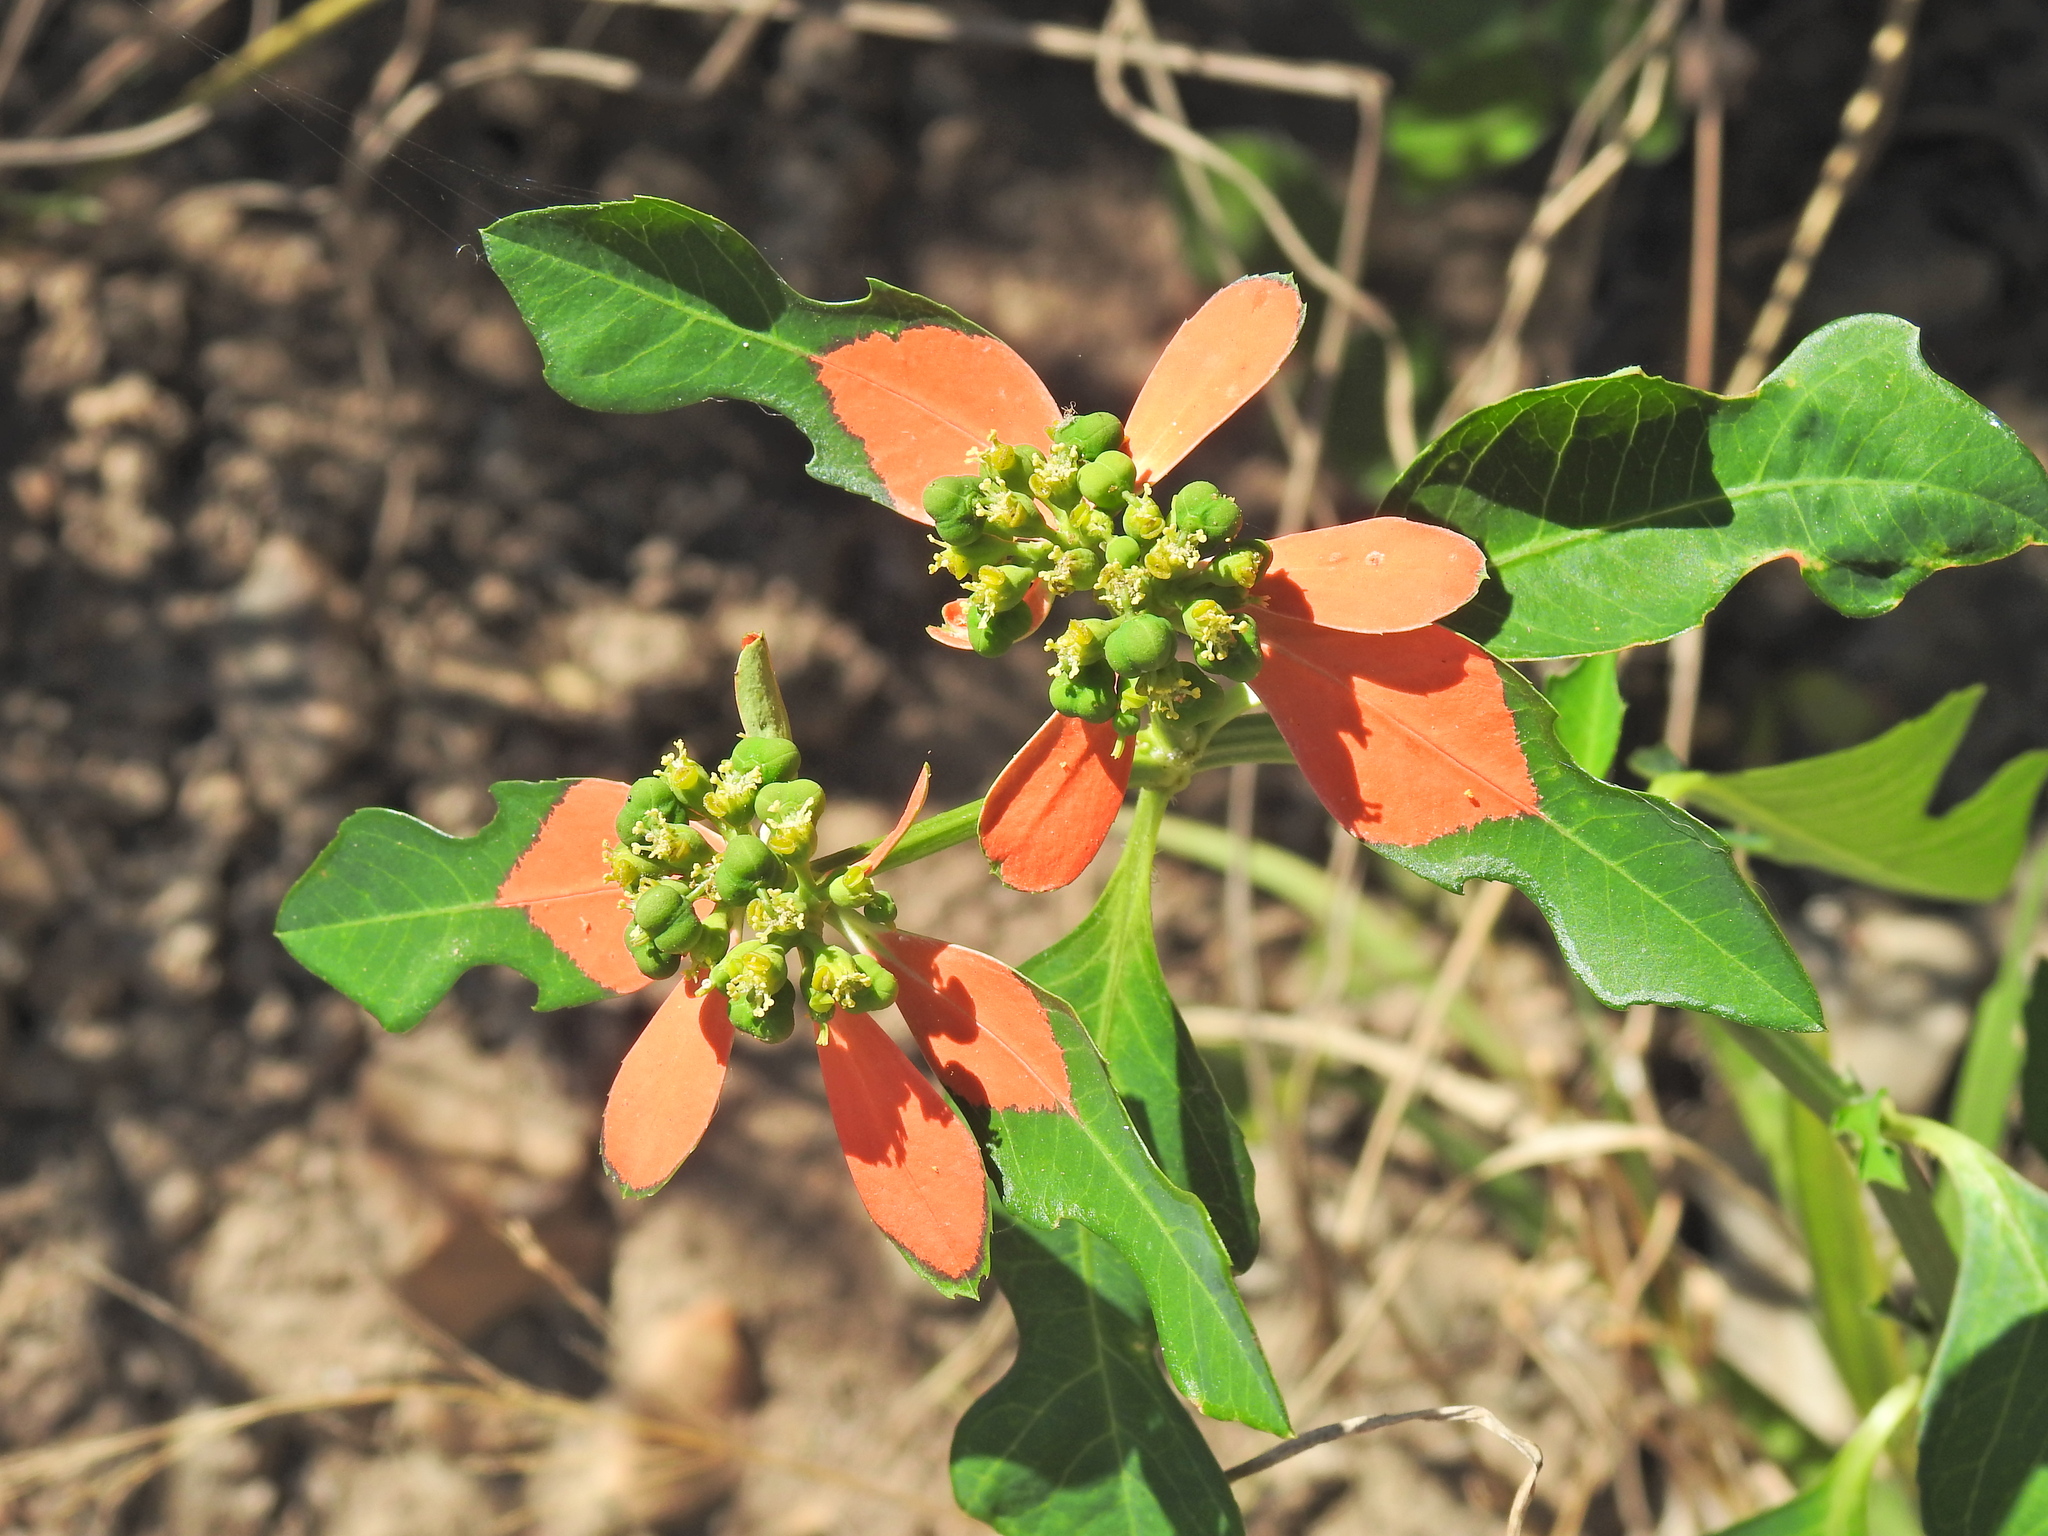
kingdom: Plantae
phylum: Tracheophyta
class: Magnoliopsida
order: Malpighiales
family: Euphorbiaceae
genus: Euphorbia
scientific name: Euphorbia heterophylla
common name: Mexican fireplant
